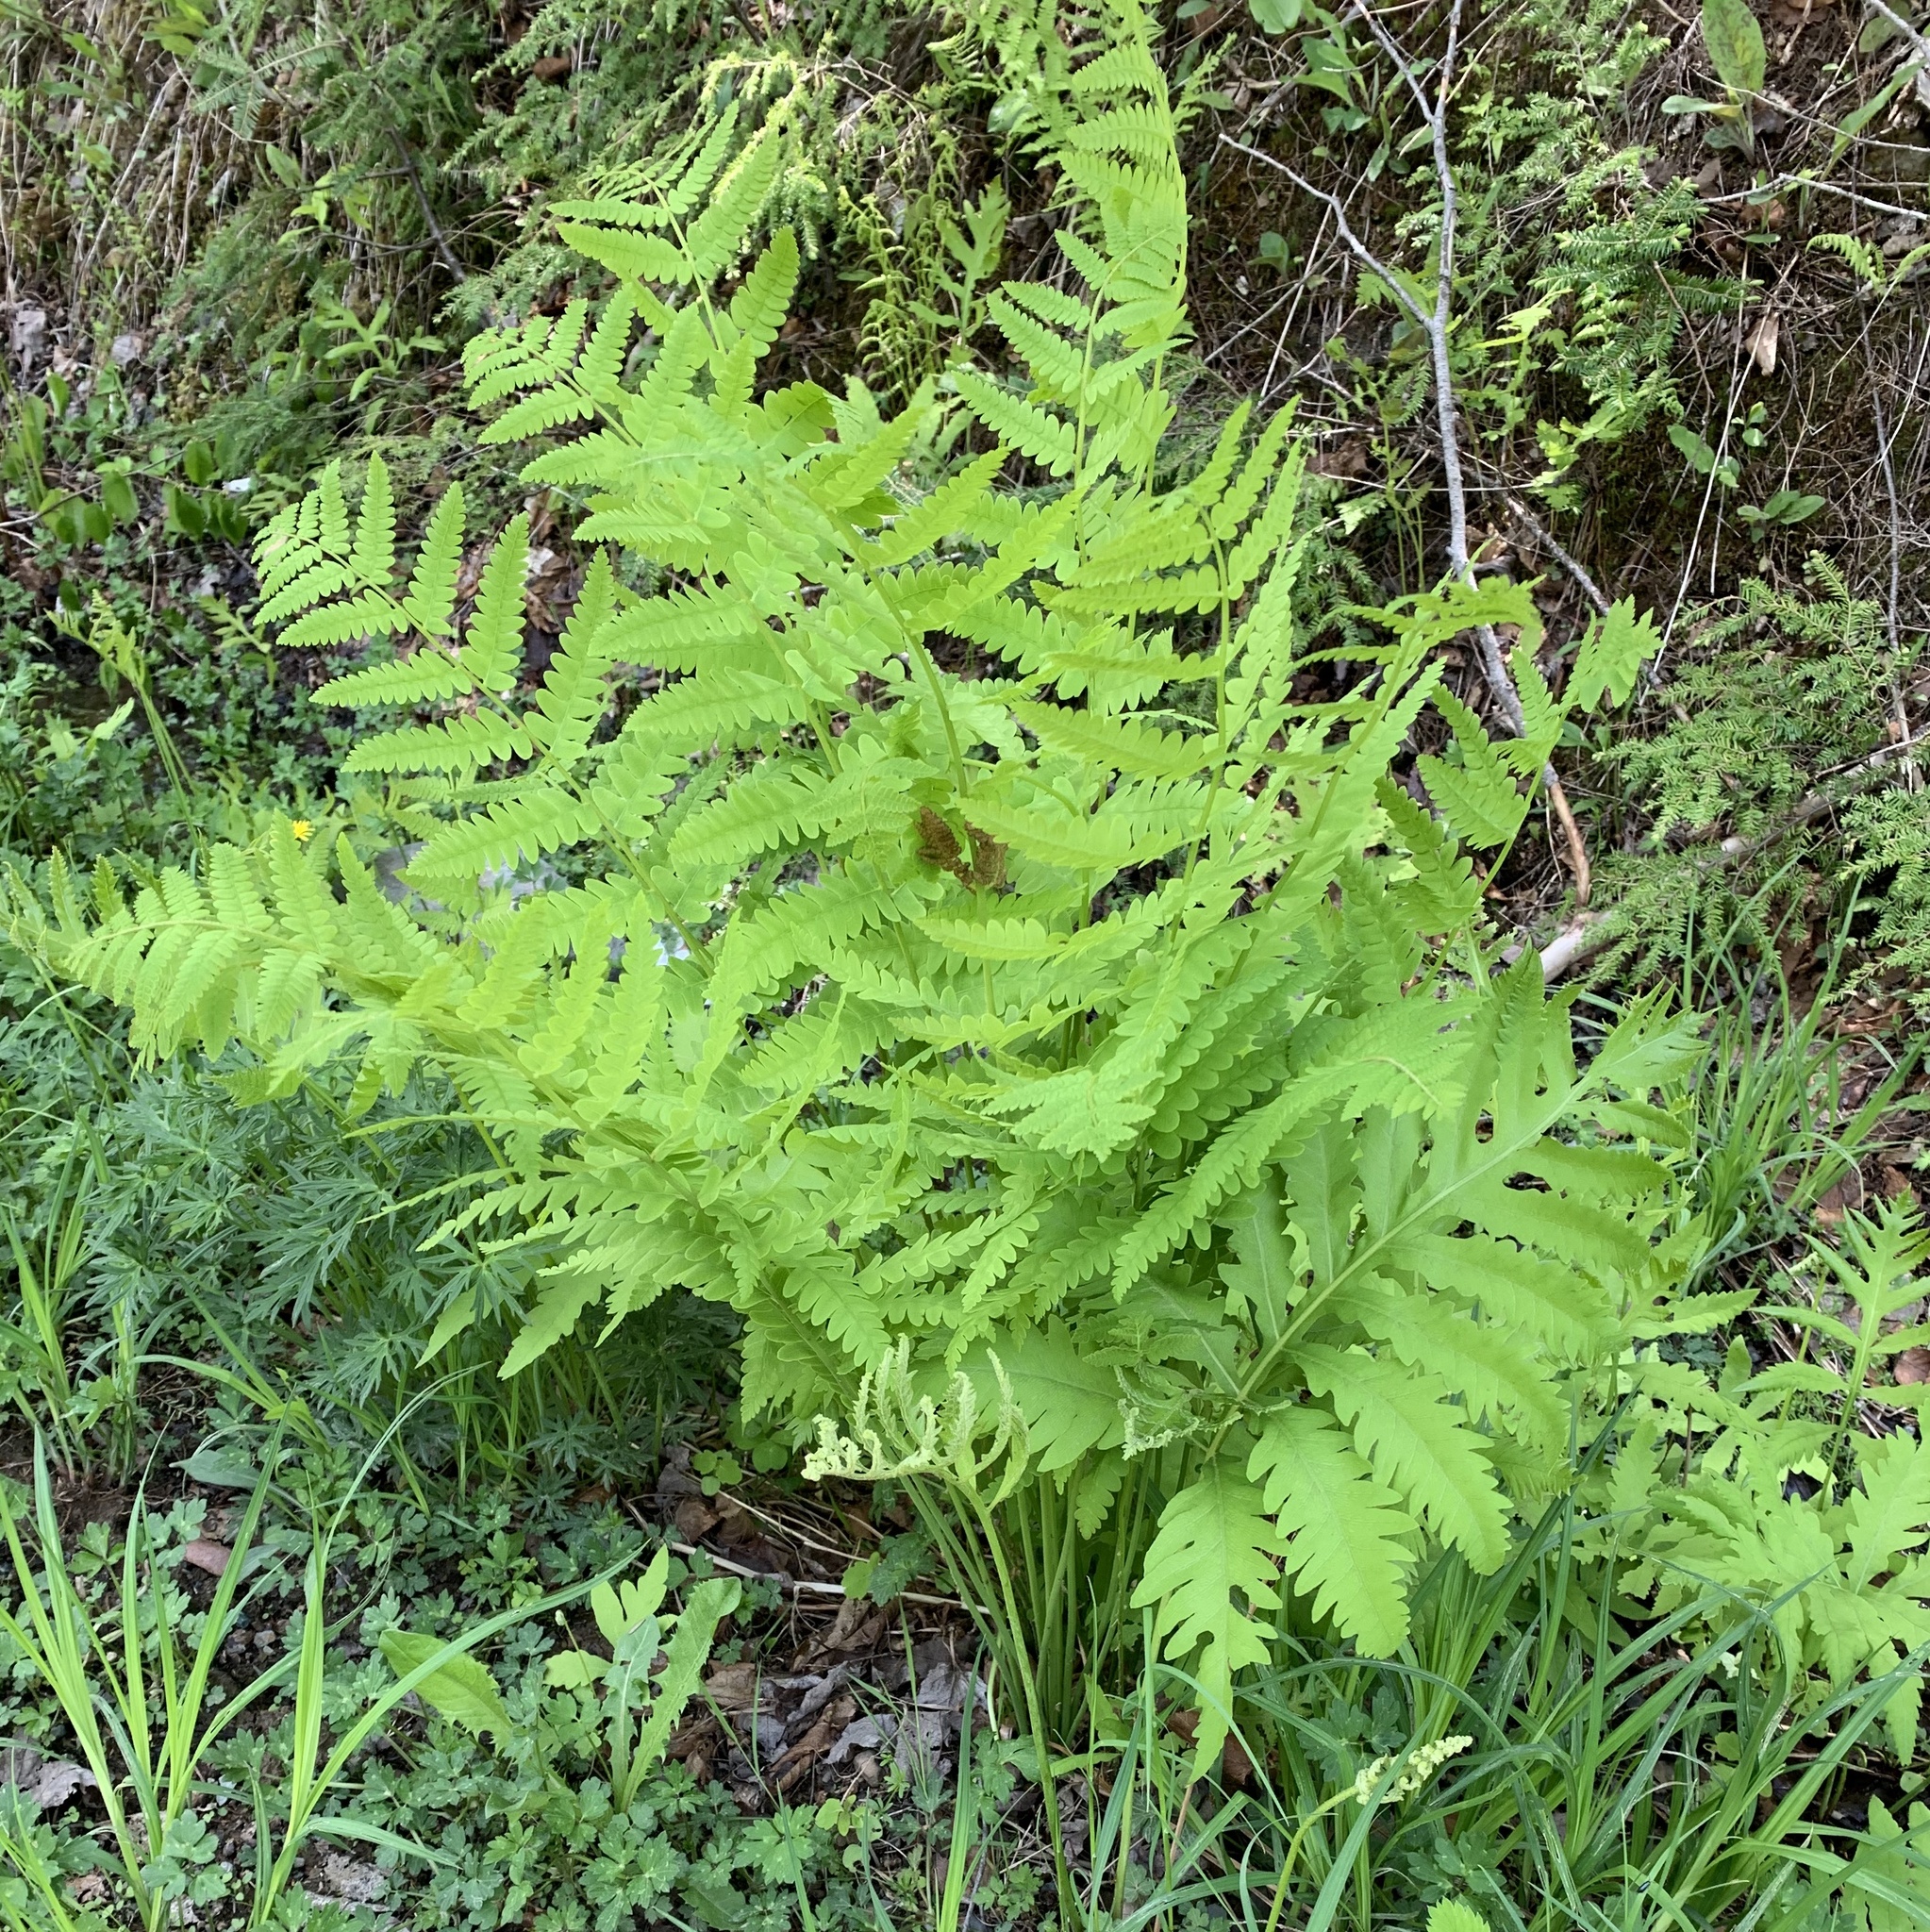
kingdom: Plantae
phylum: Tracheophyta
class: Polypodiopsida
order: Osmundales
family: Osmundaceae
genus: Claytosmunda
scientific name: Claytosmunda claytoniana
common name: Clayton's fern
